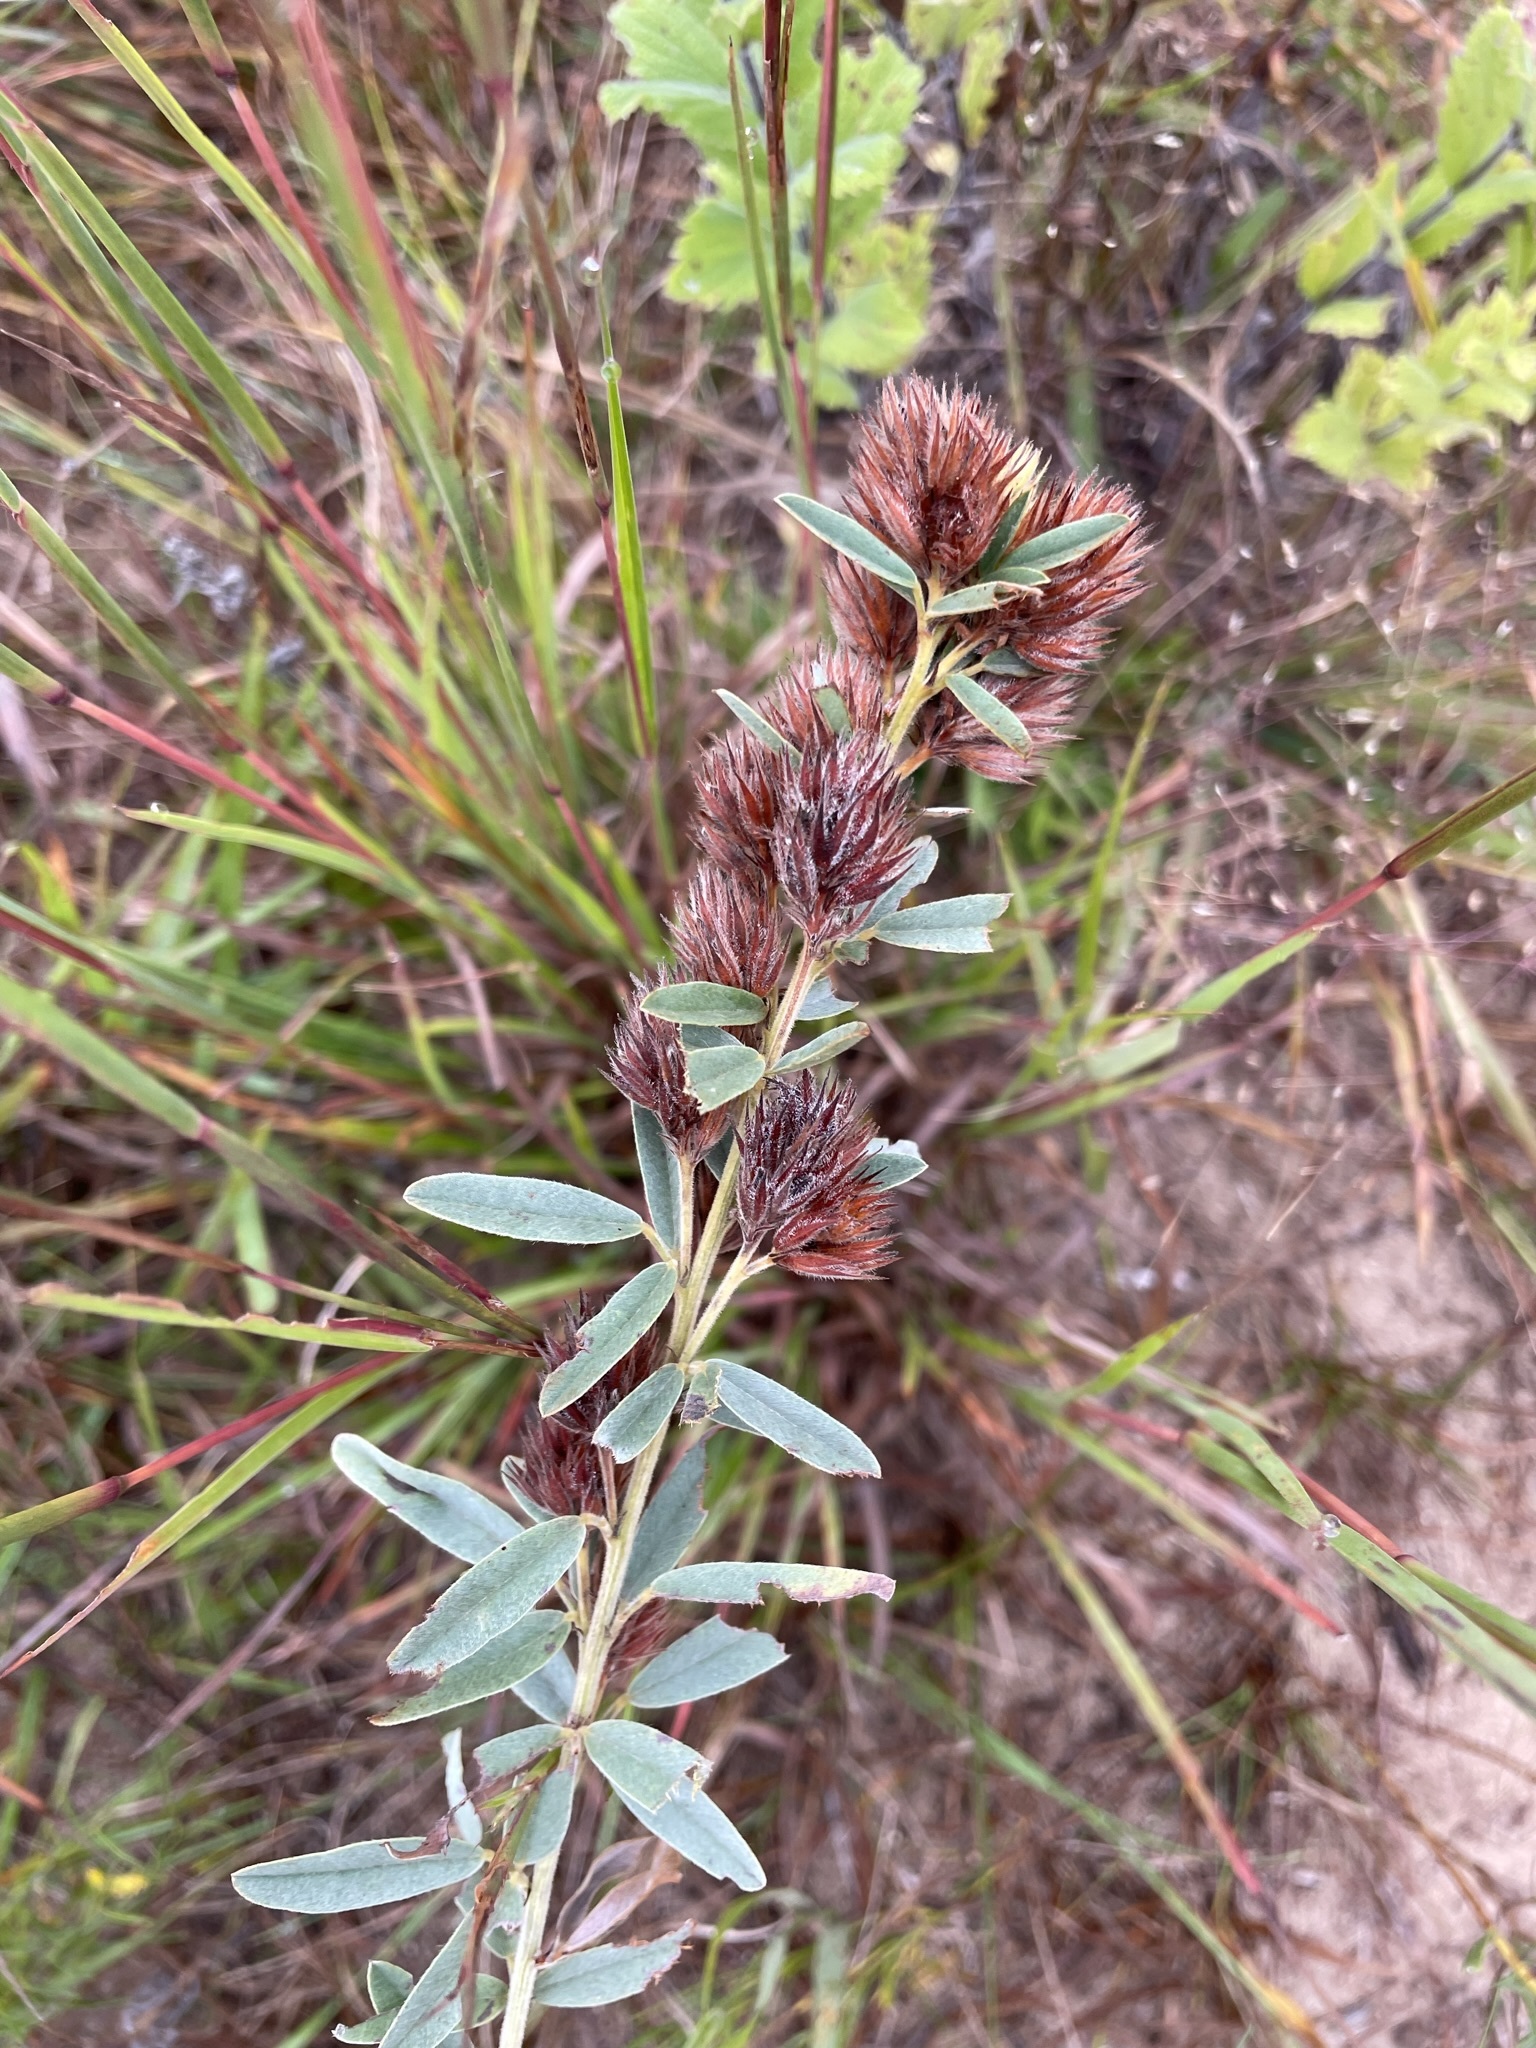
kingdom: Plantae
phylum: Tracheophyta
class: Magnoliopsida
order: Fabales
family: Fabaceae
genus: Lespedeza
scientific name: Lespedeza capitata
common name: Dusty clover
